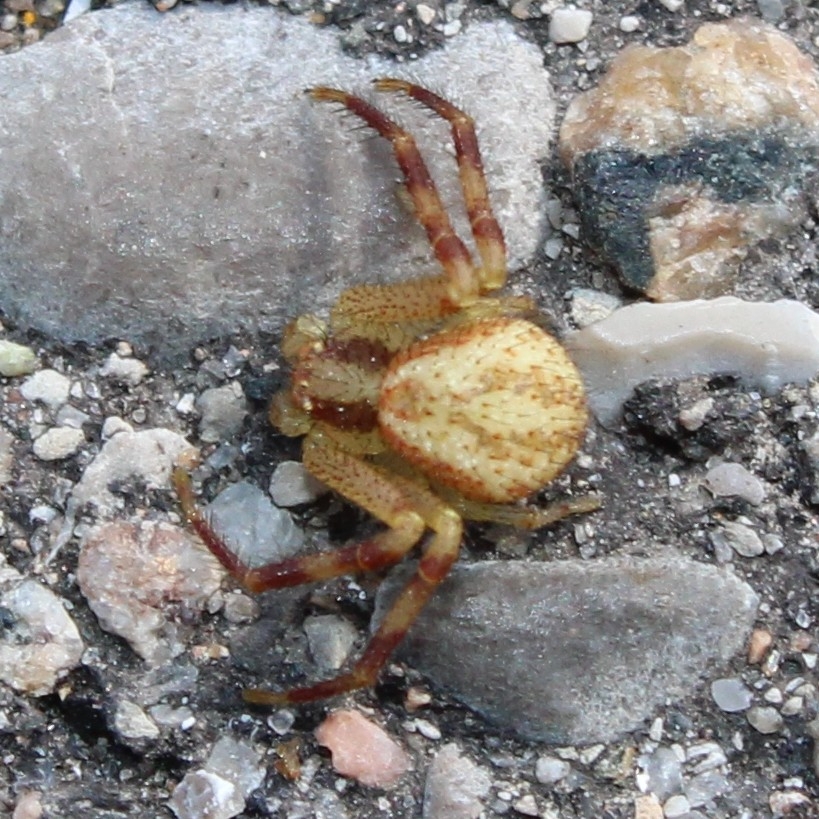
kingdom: Animalia
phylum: Arthropoda
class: Arachnida
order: Araneae
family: Thomisidae
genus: Mecaphesa
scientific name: Mecaphesa asperata
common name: Crab spiders
